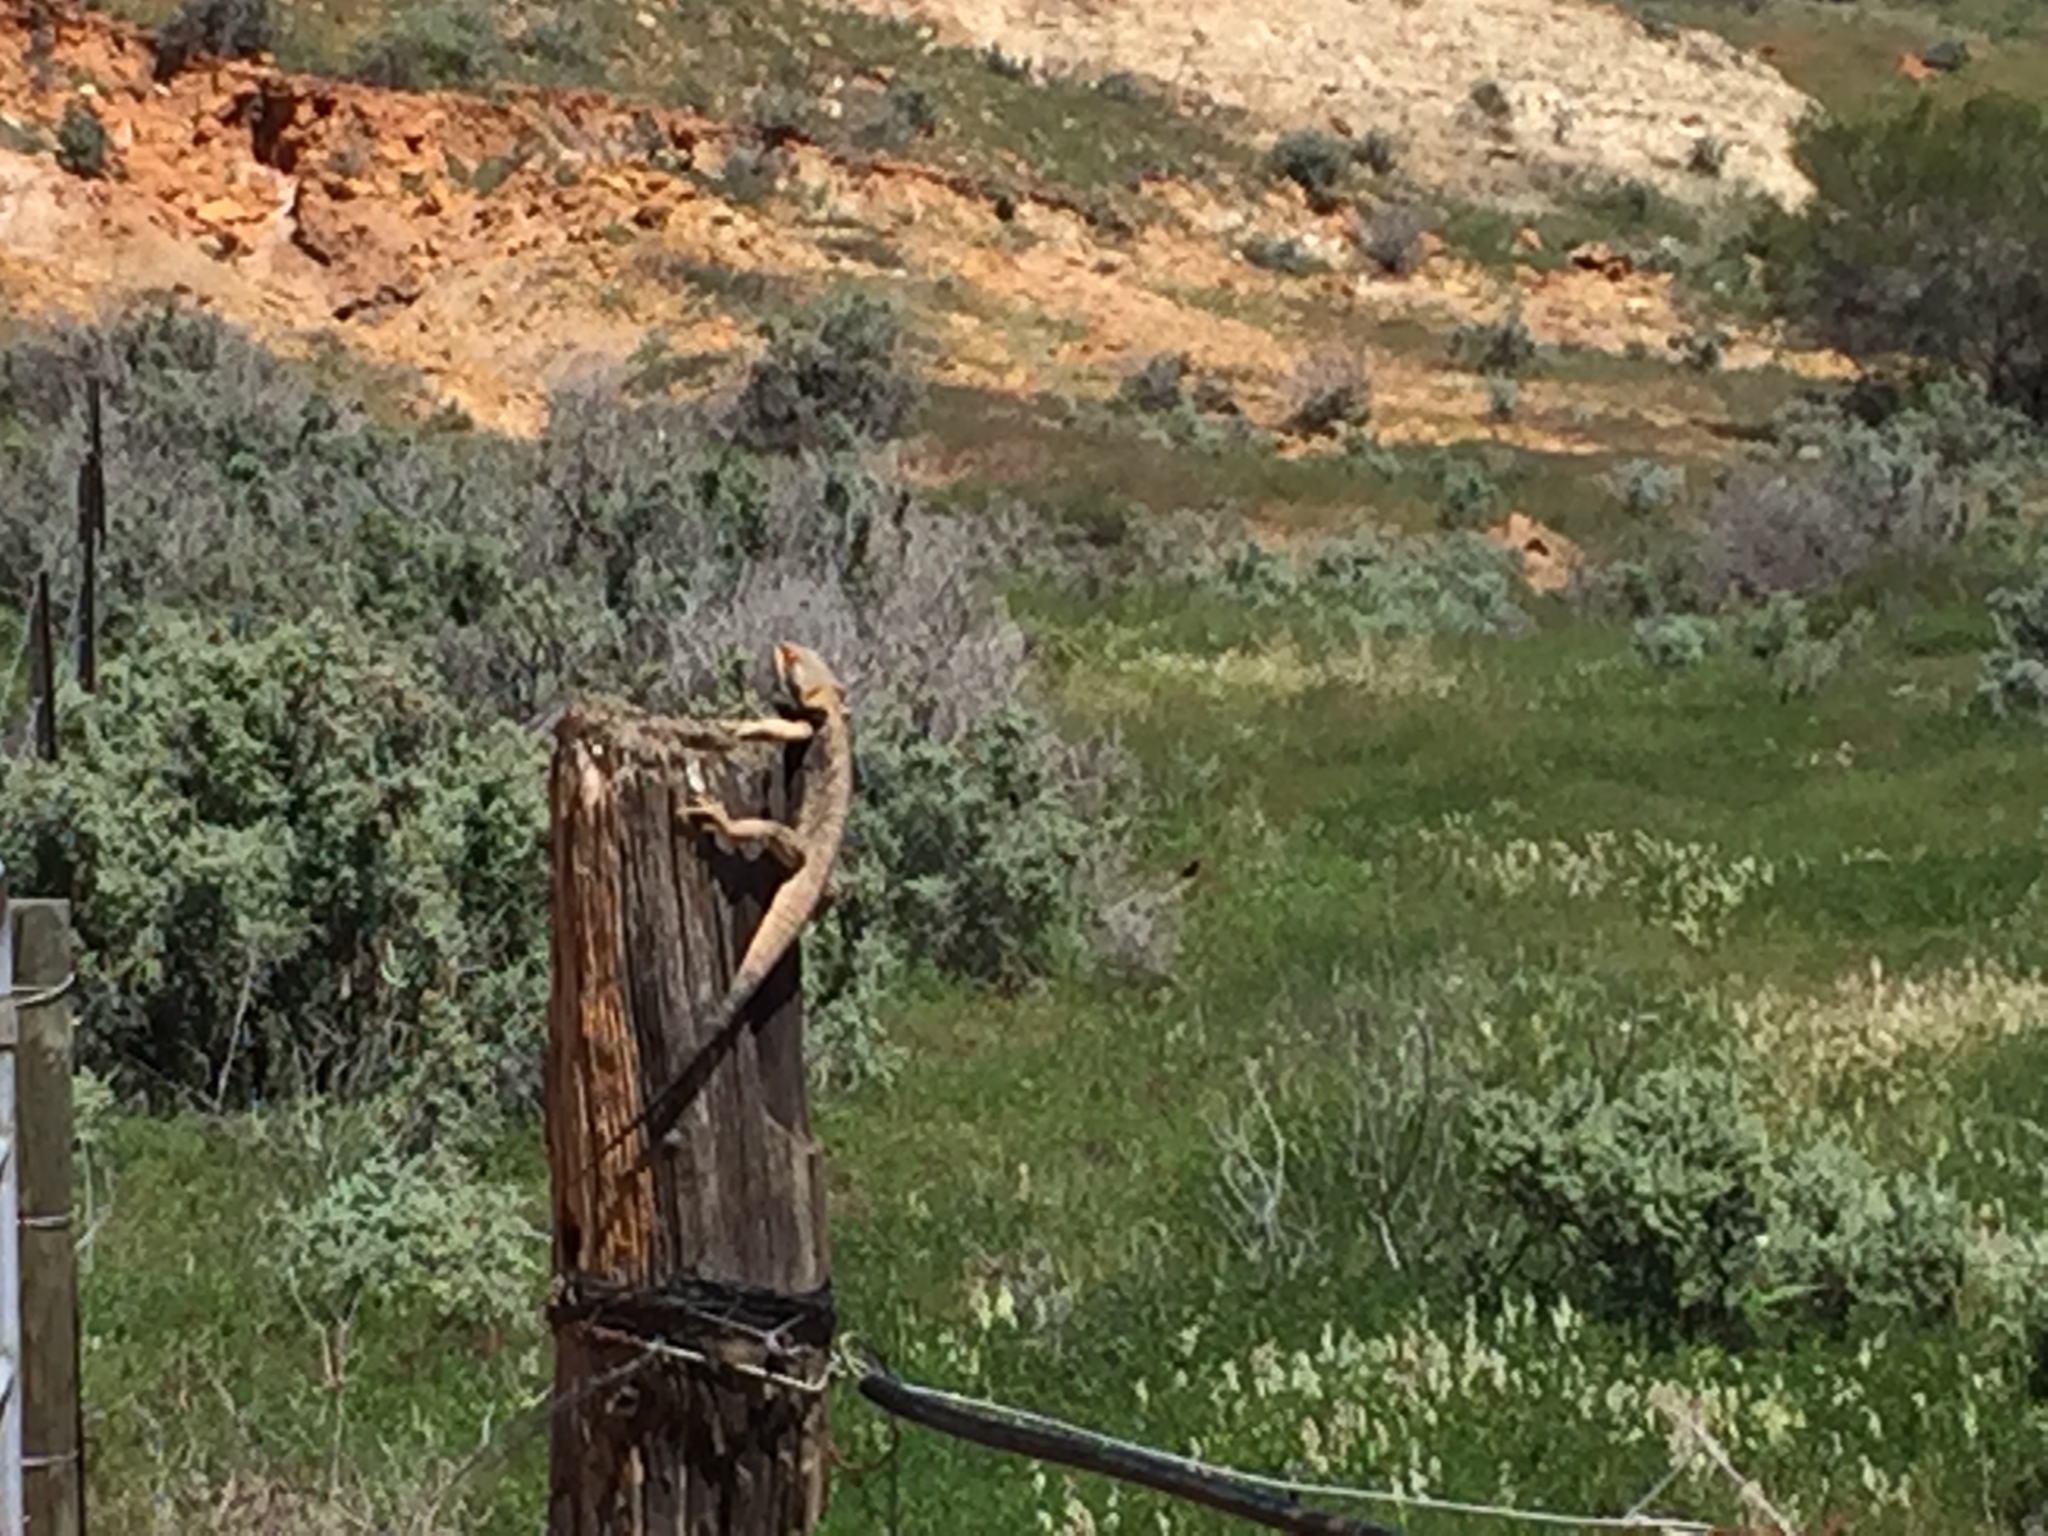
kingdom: Animalia
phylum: Chordata
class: Squamata
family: Agamidae
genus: Pogona
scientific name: Pogona vitticeps
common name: Central bearded dragon
